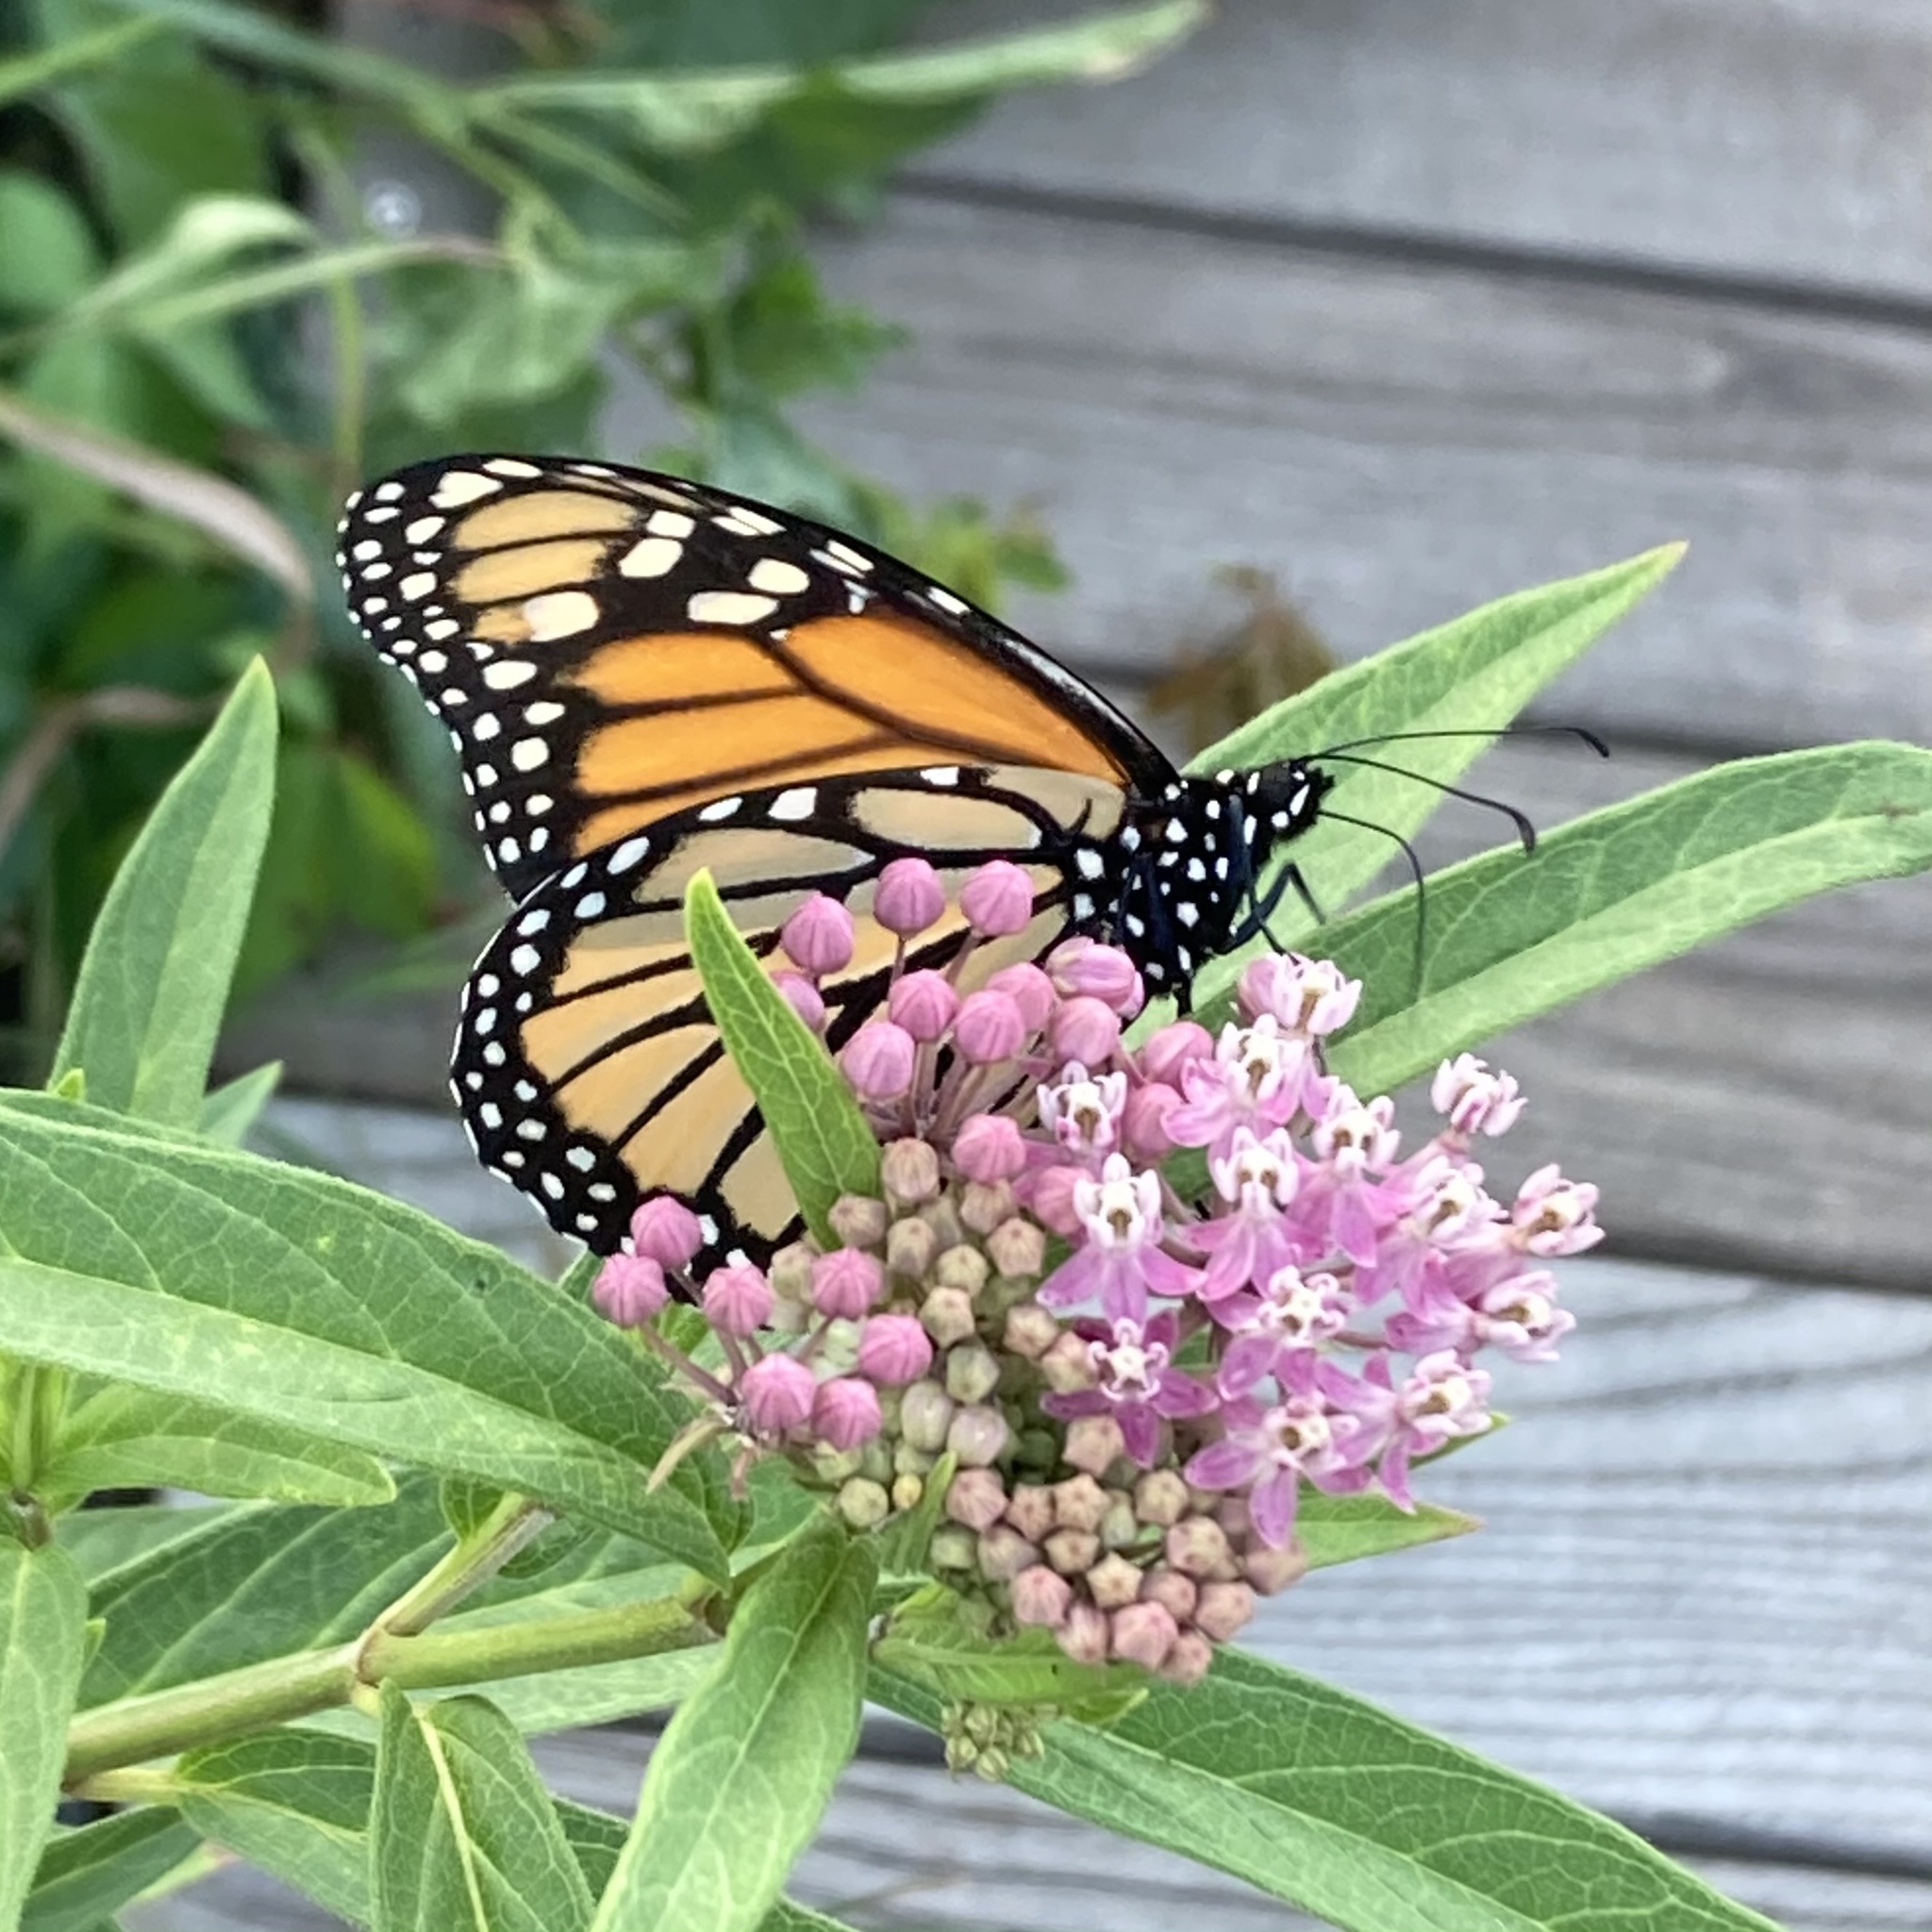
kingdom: Animalia
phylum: Arthropoda
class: Insecta
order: Lepidoptera
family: Nymphalidae
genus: Danaus
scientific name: Danaus plexippus
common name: Monarch
